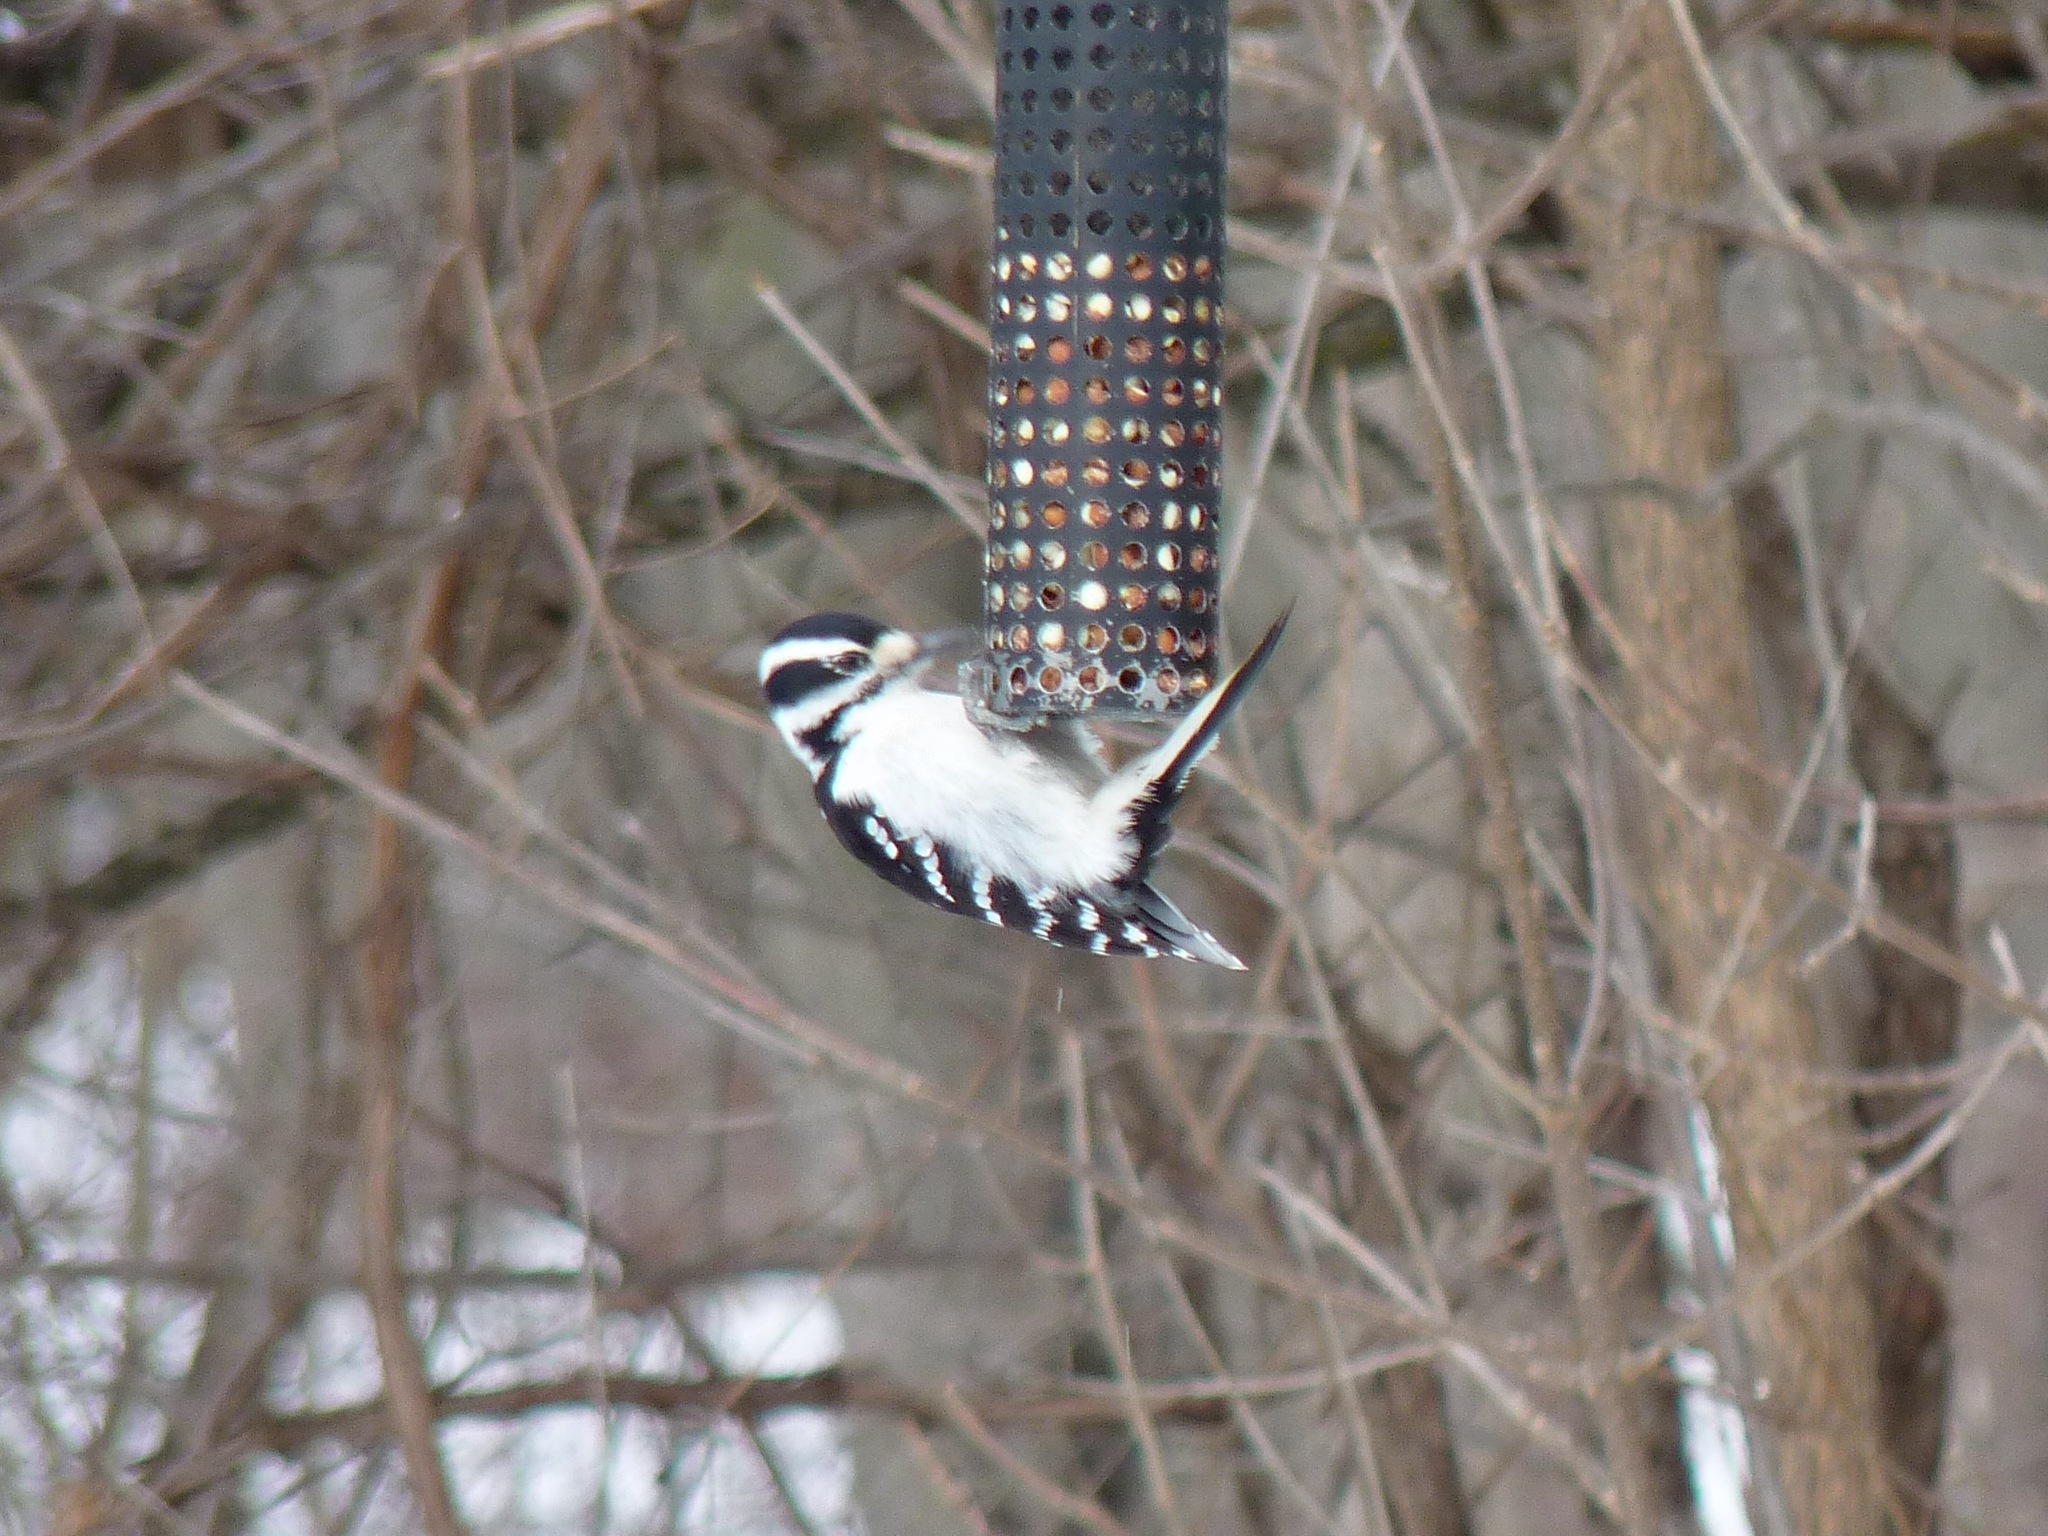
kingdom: Animalia
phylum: Chordata
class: Aves
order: Piciformes
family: Picidae
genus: Leuconotopicus
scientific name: Leuconotopicus villosus
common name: Hairy woodpecker
